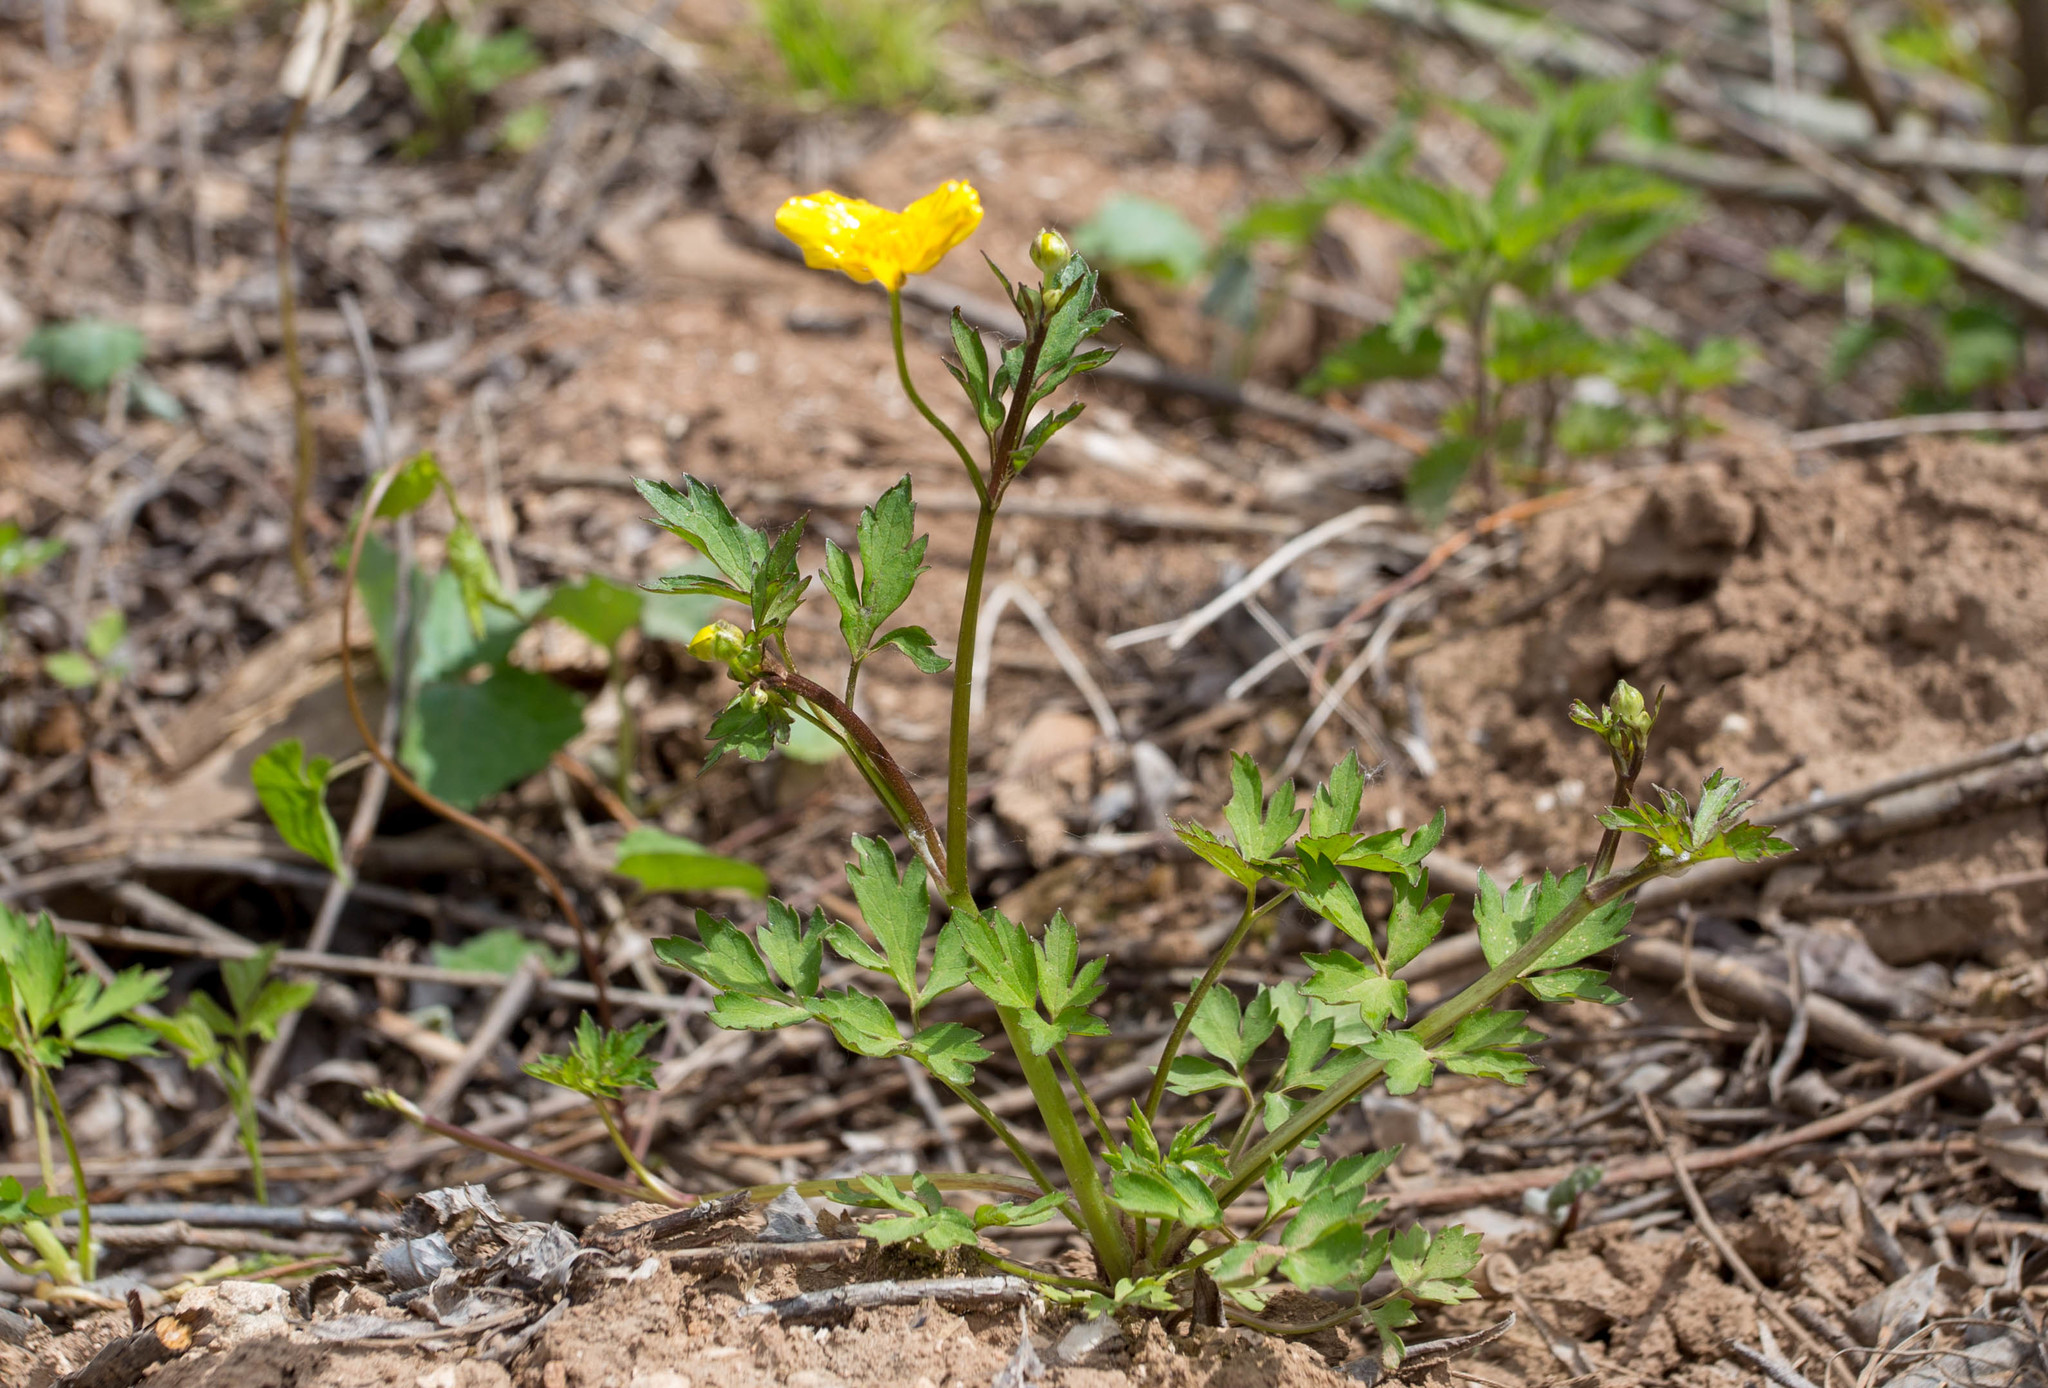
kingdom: Plantae
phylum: Tracheophyta
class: Magnoliopsida
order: Ranunculales
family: Ranunculaceae
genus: Ranunculus
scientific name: Ranunculus repens
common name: Creeping buttercup
